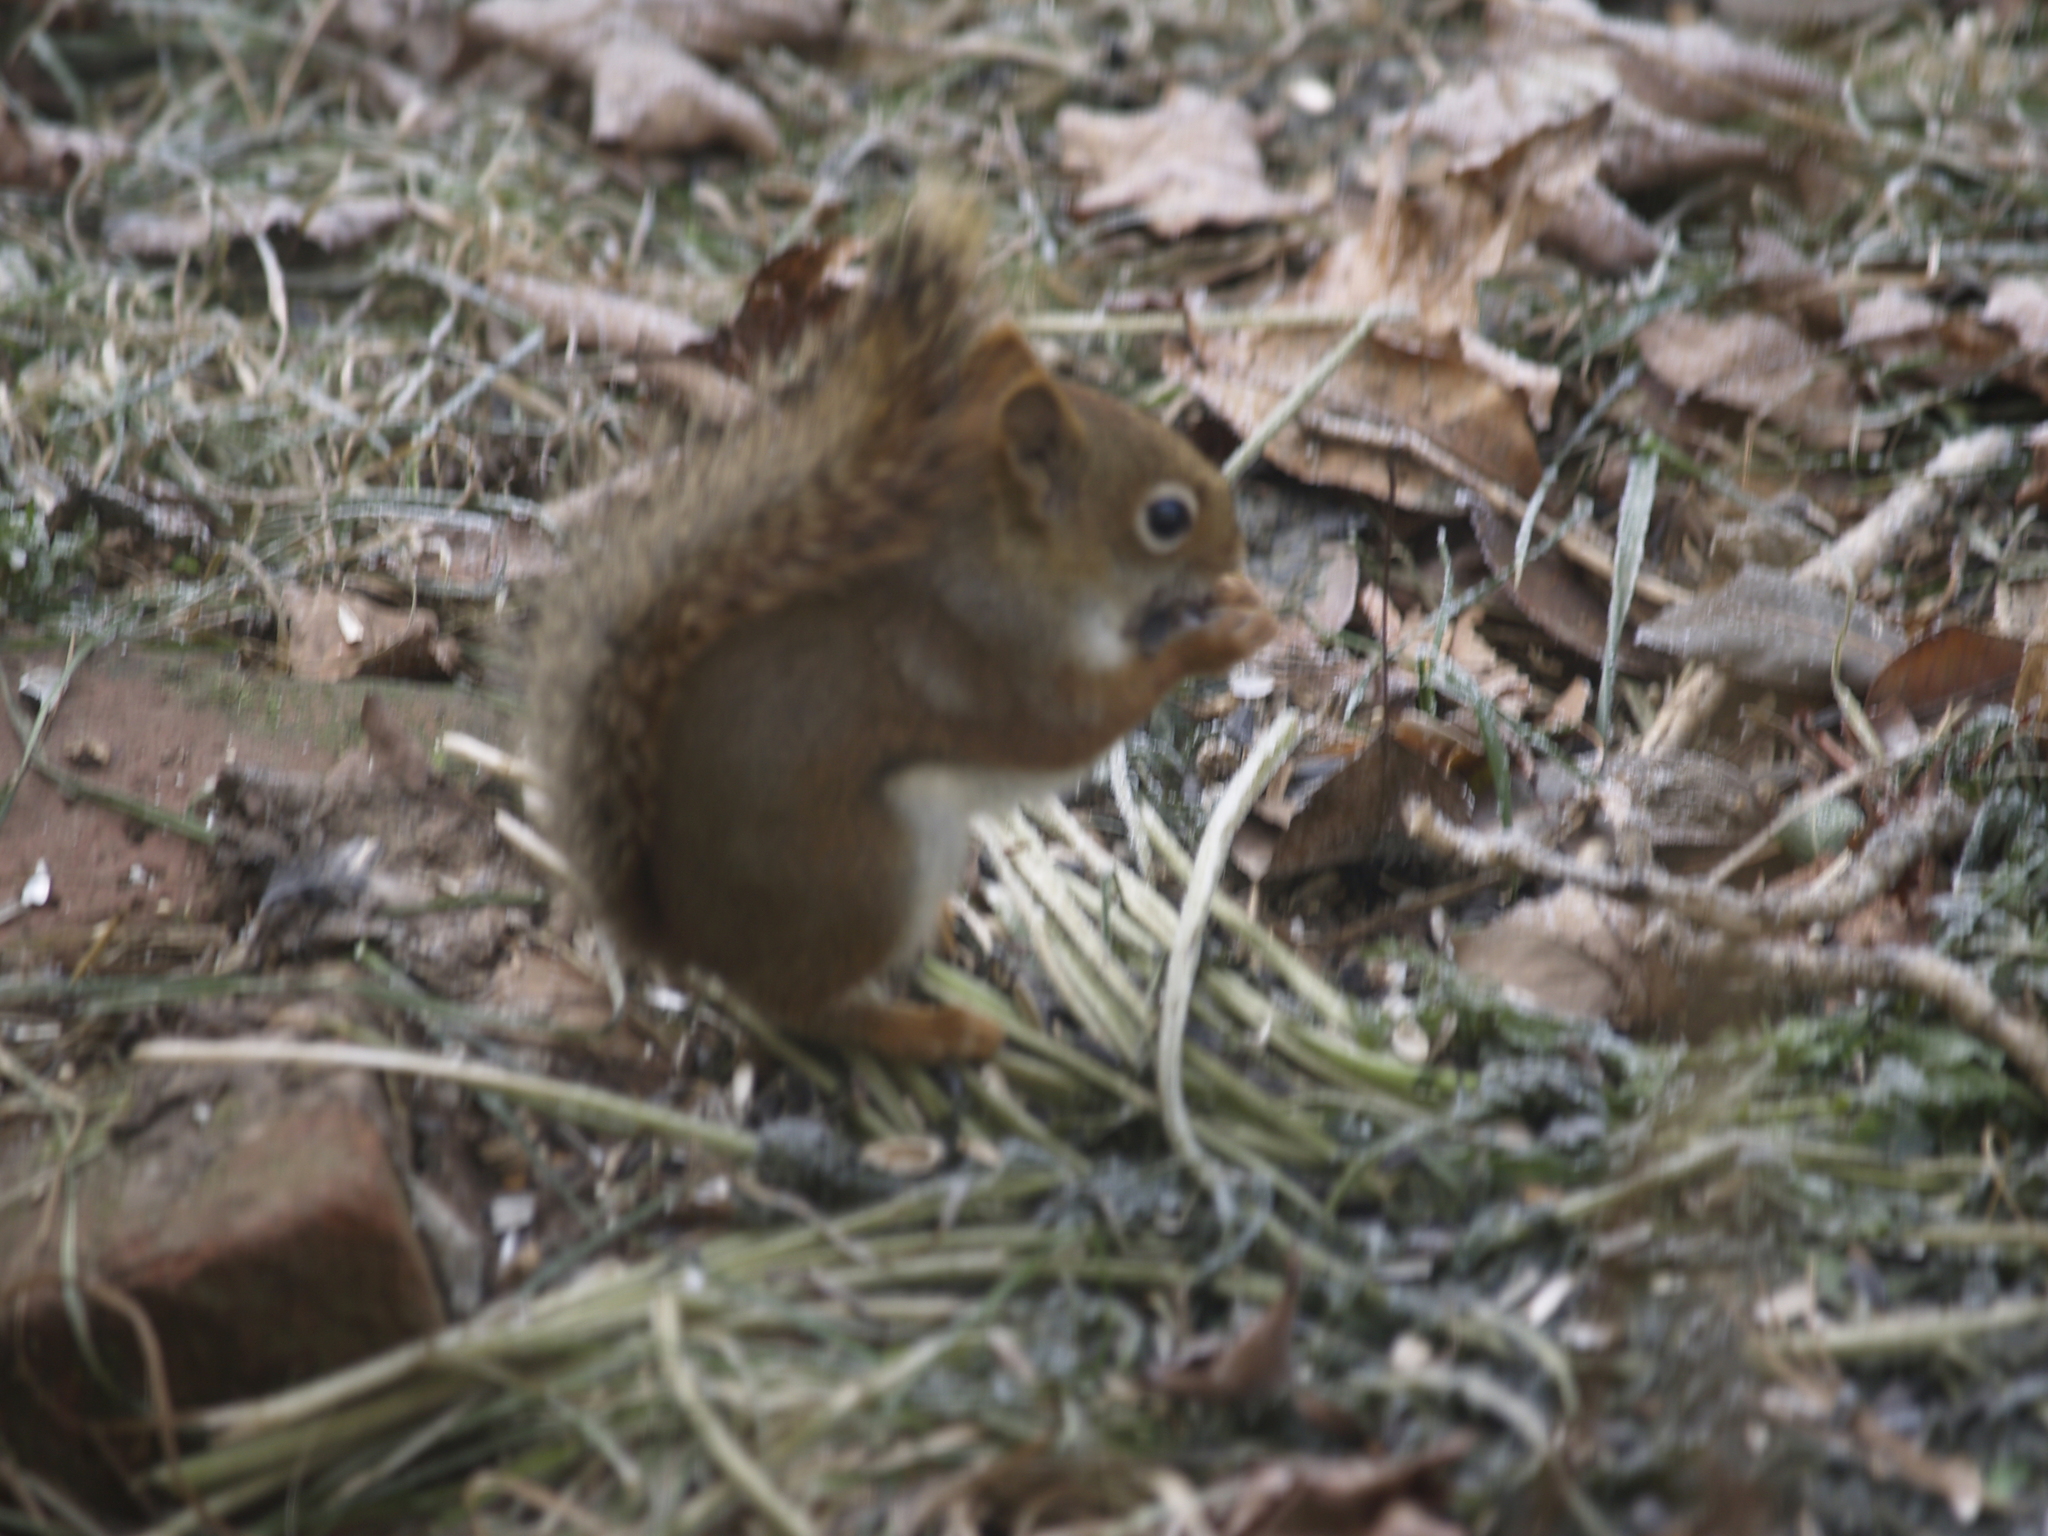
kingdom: Animalia
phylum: Chordata
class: Mammalia
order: Rodentia
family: Sciuridae
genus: Tamiasciurus
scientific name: Tamiasciurus hudsonicus
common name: Red squirrel
